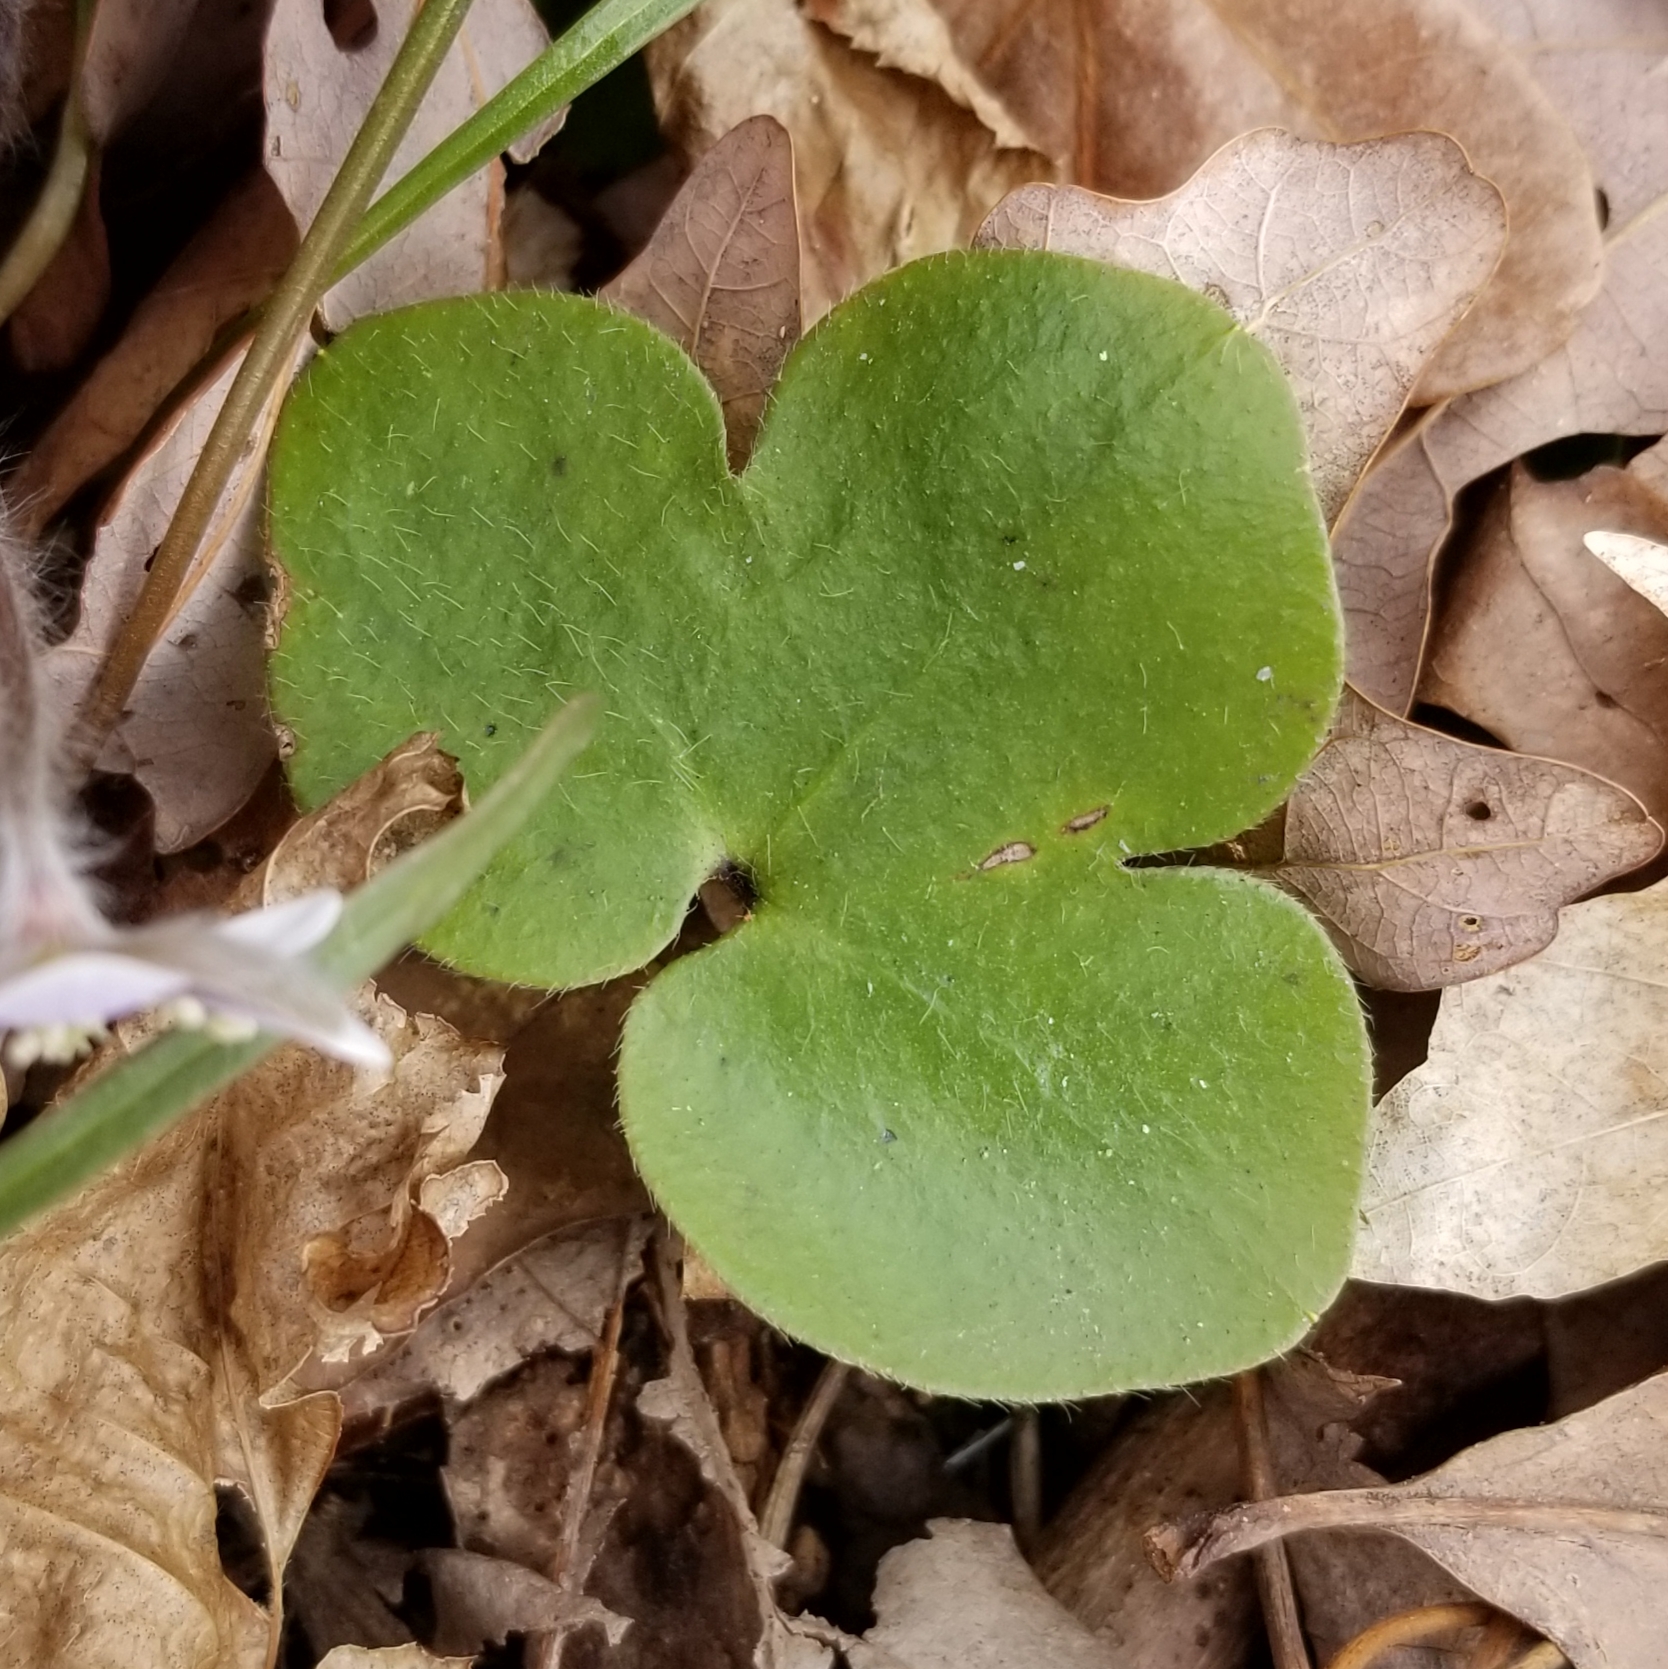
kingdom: Plantae
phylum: Tracheophyta
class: Magnoliopsida
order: Ranunculales
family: Ranunculaceae
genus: Hepatica
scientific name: Hepatica americana
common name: American hepatica
